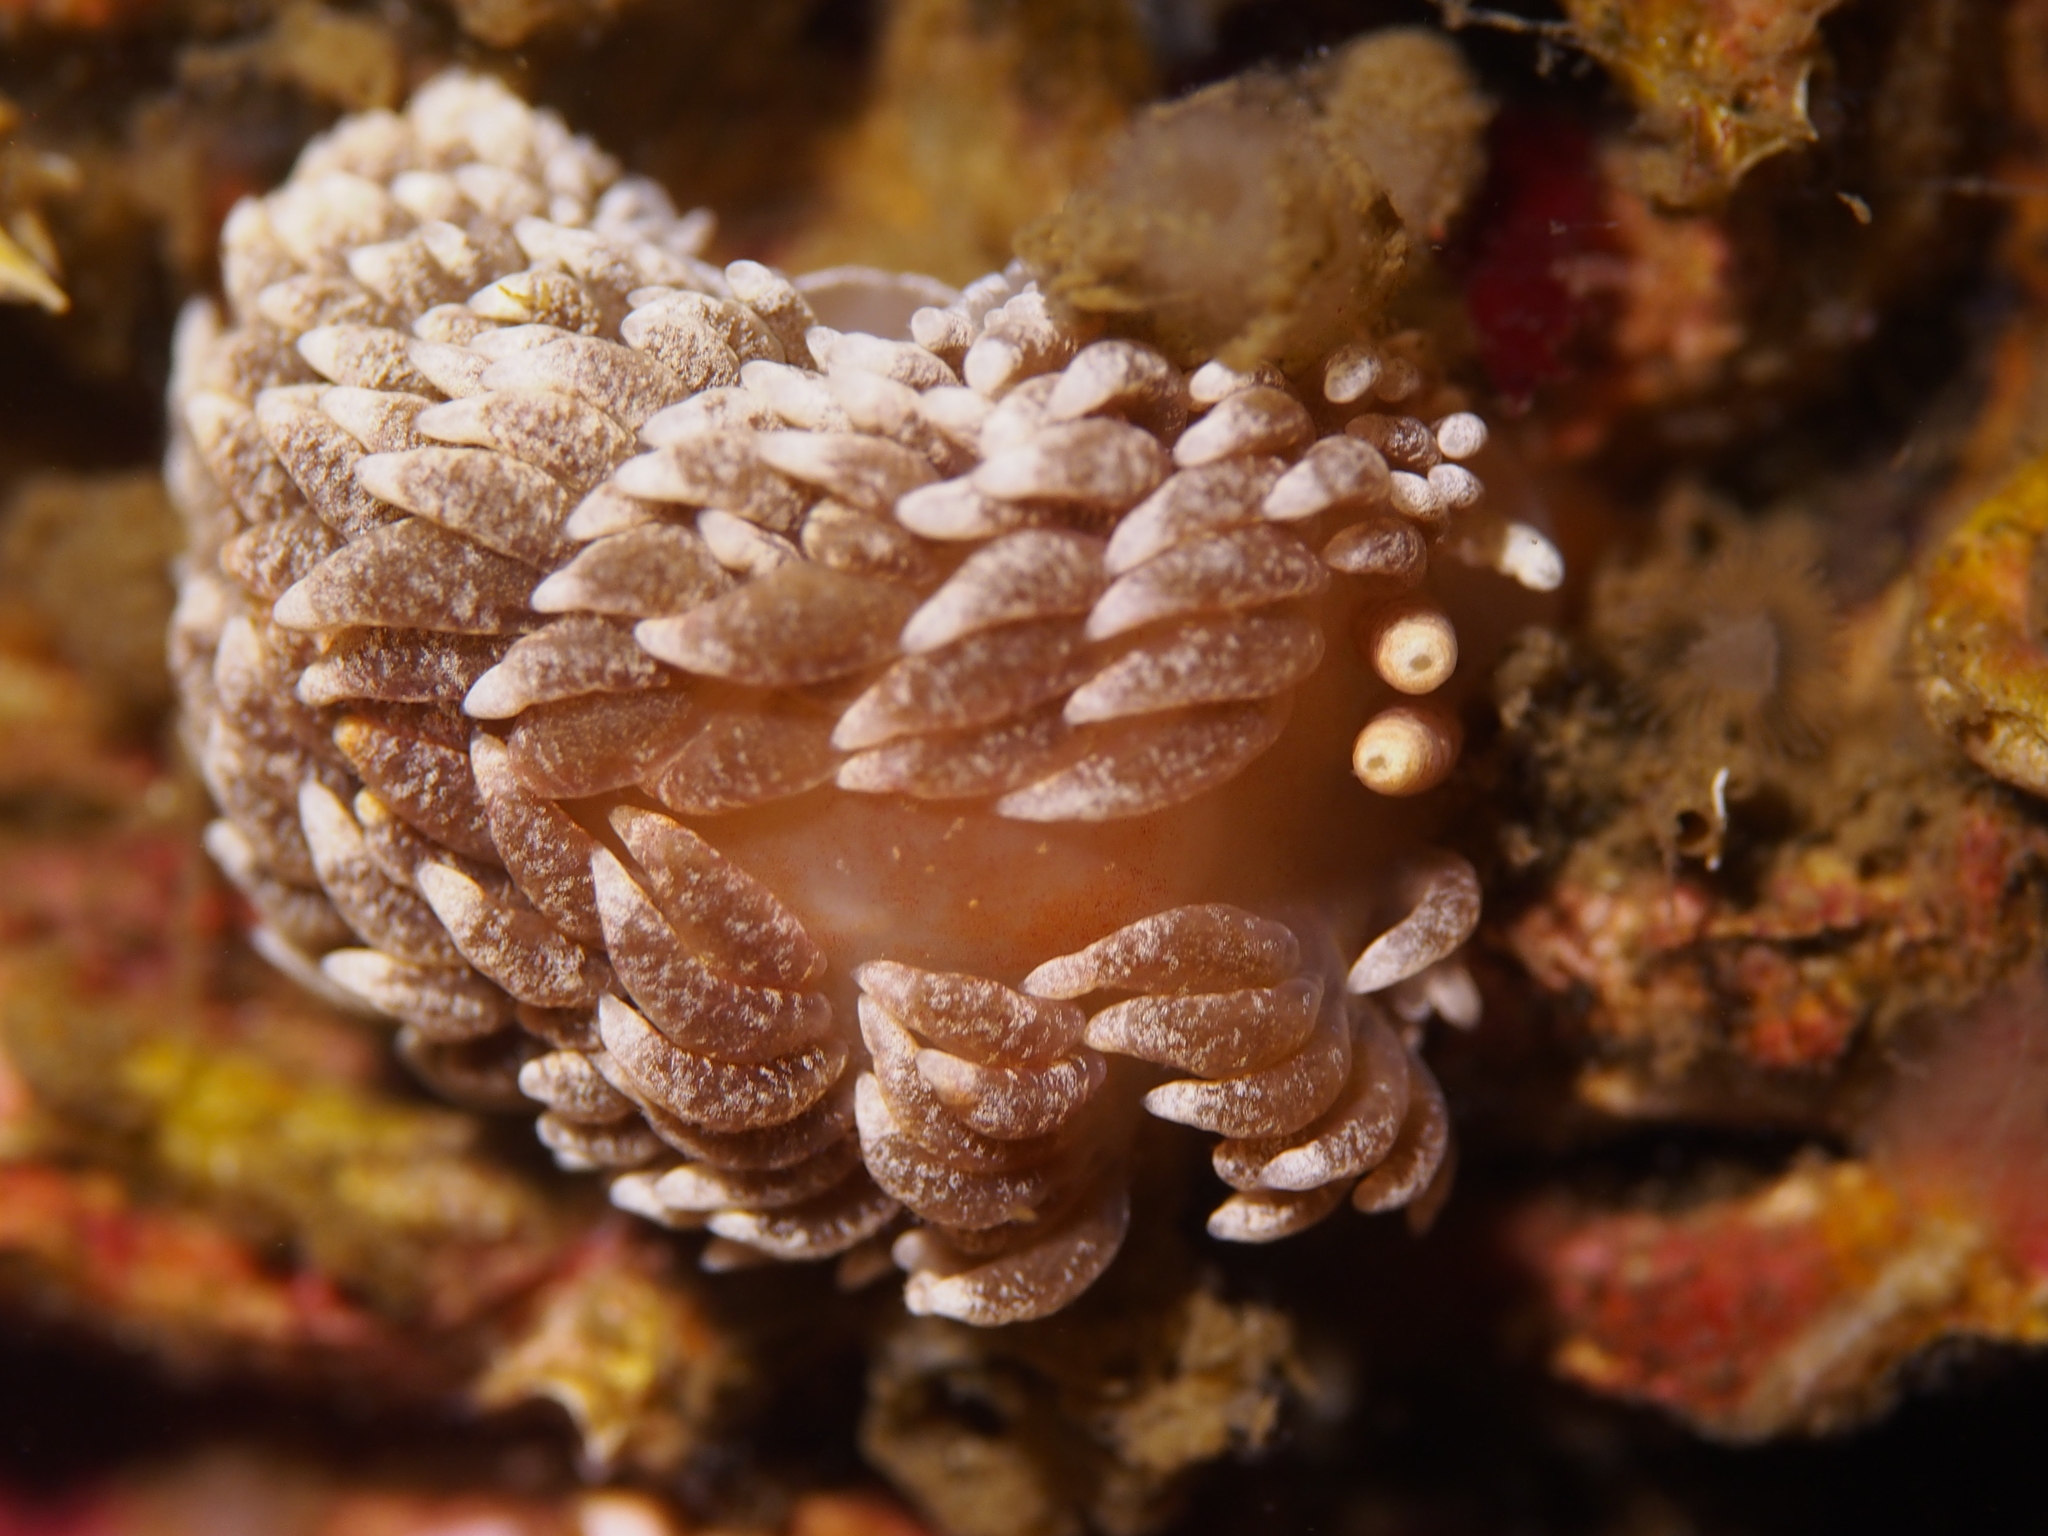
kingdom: Animalia
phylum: Mollusca
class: Gastropoda
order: Nudibranchia
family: Aeolidiidae
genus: Aeolidiella
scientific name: Aeolidiella glauca
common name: Orange-brown aeolid
